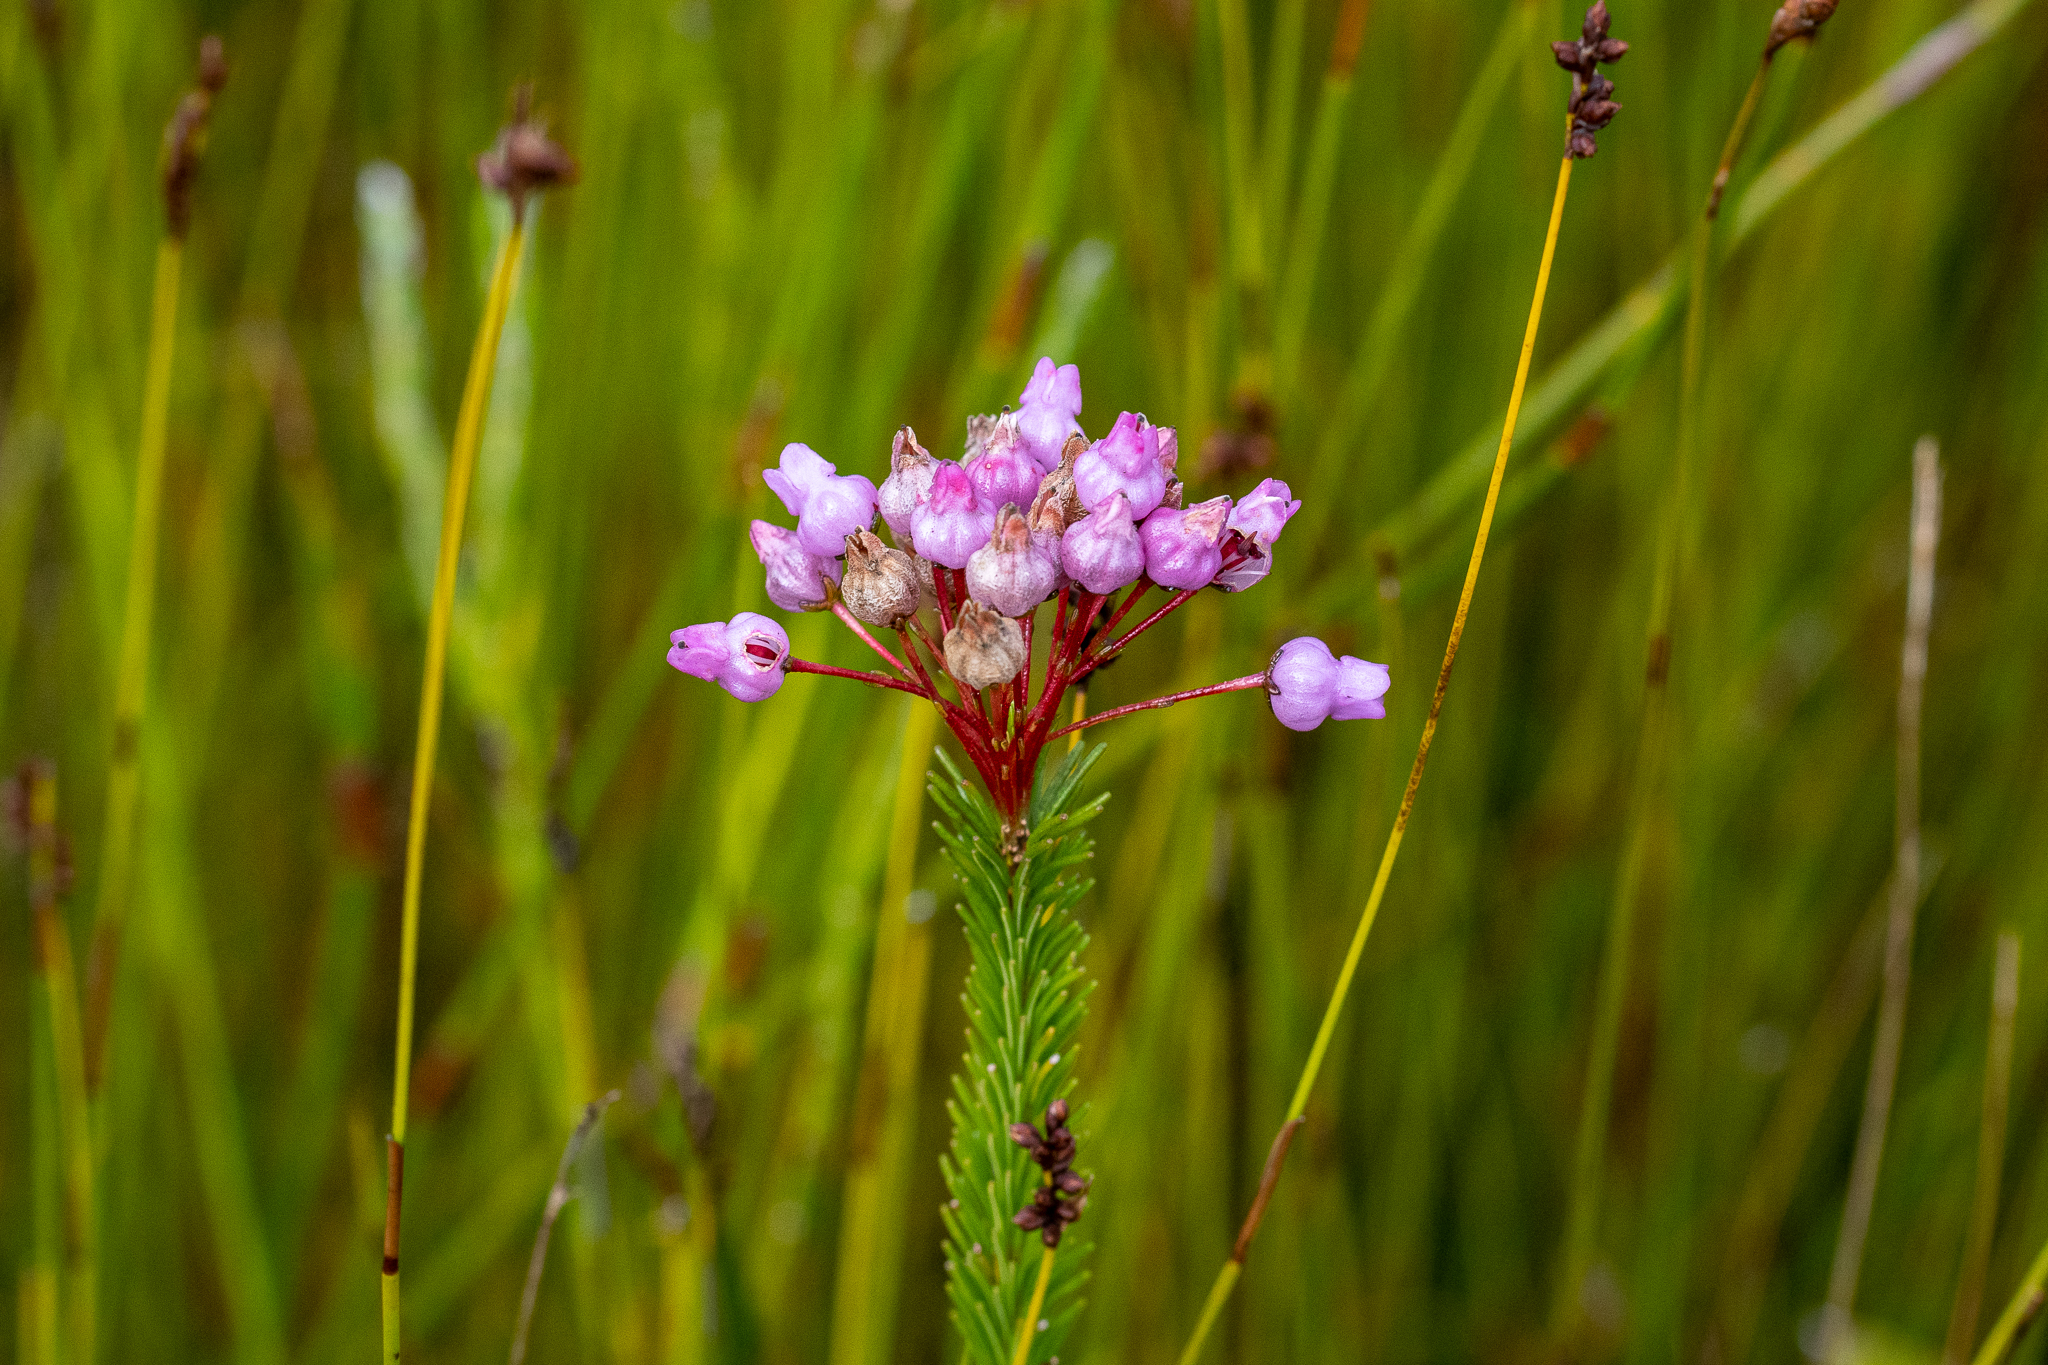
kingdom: Plantae
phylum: Tracheophyta
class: Magnoliopsida
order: Ericales
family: Ericaceae
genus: Erica
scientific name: Erica obliqua
